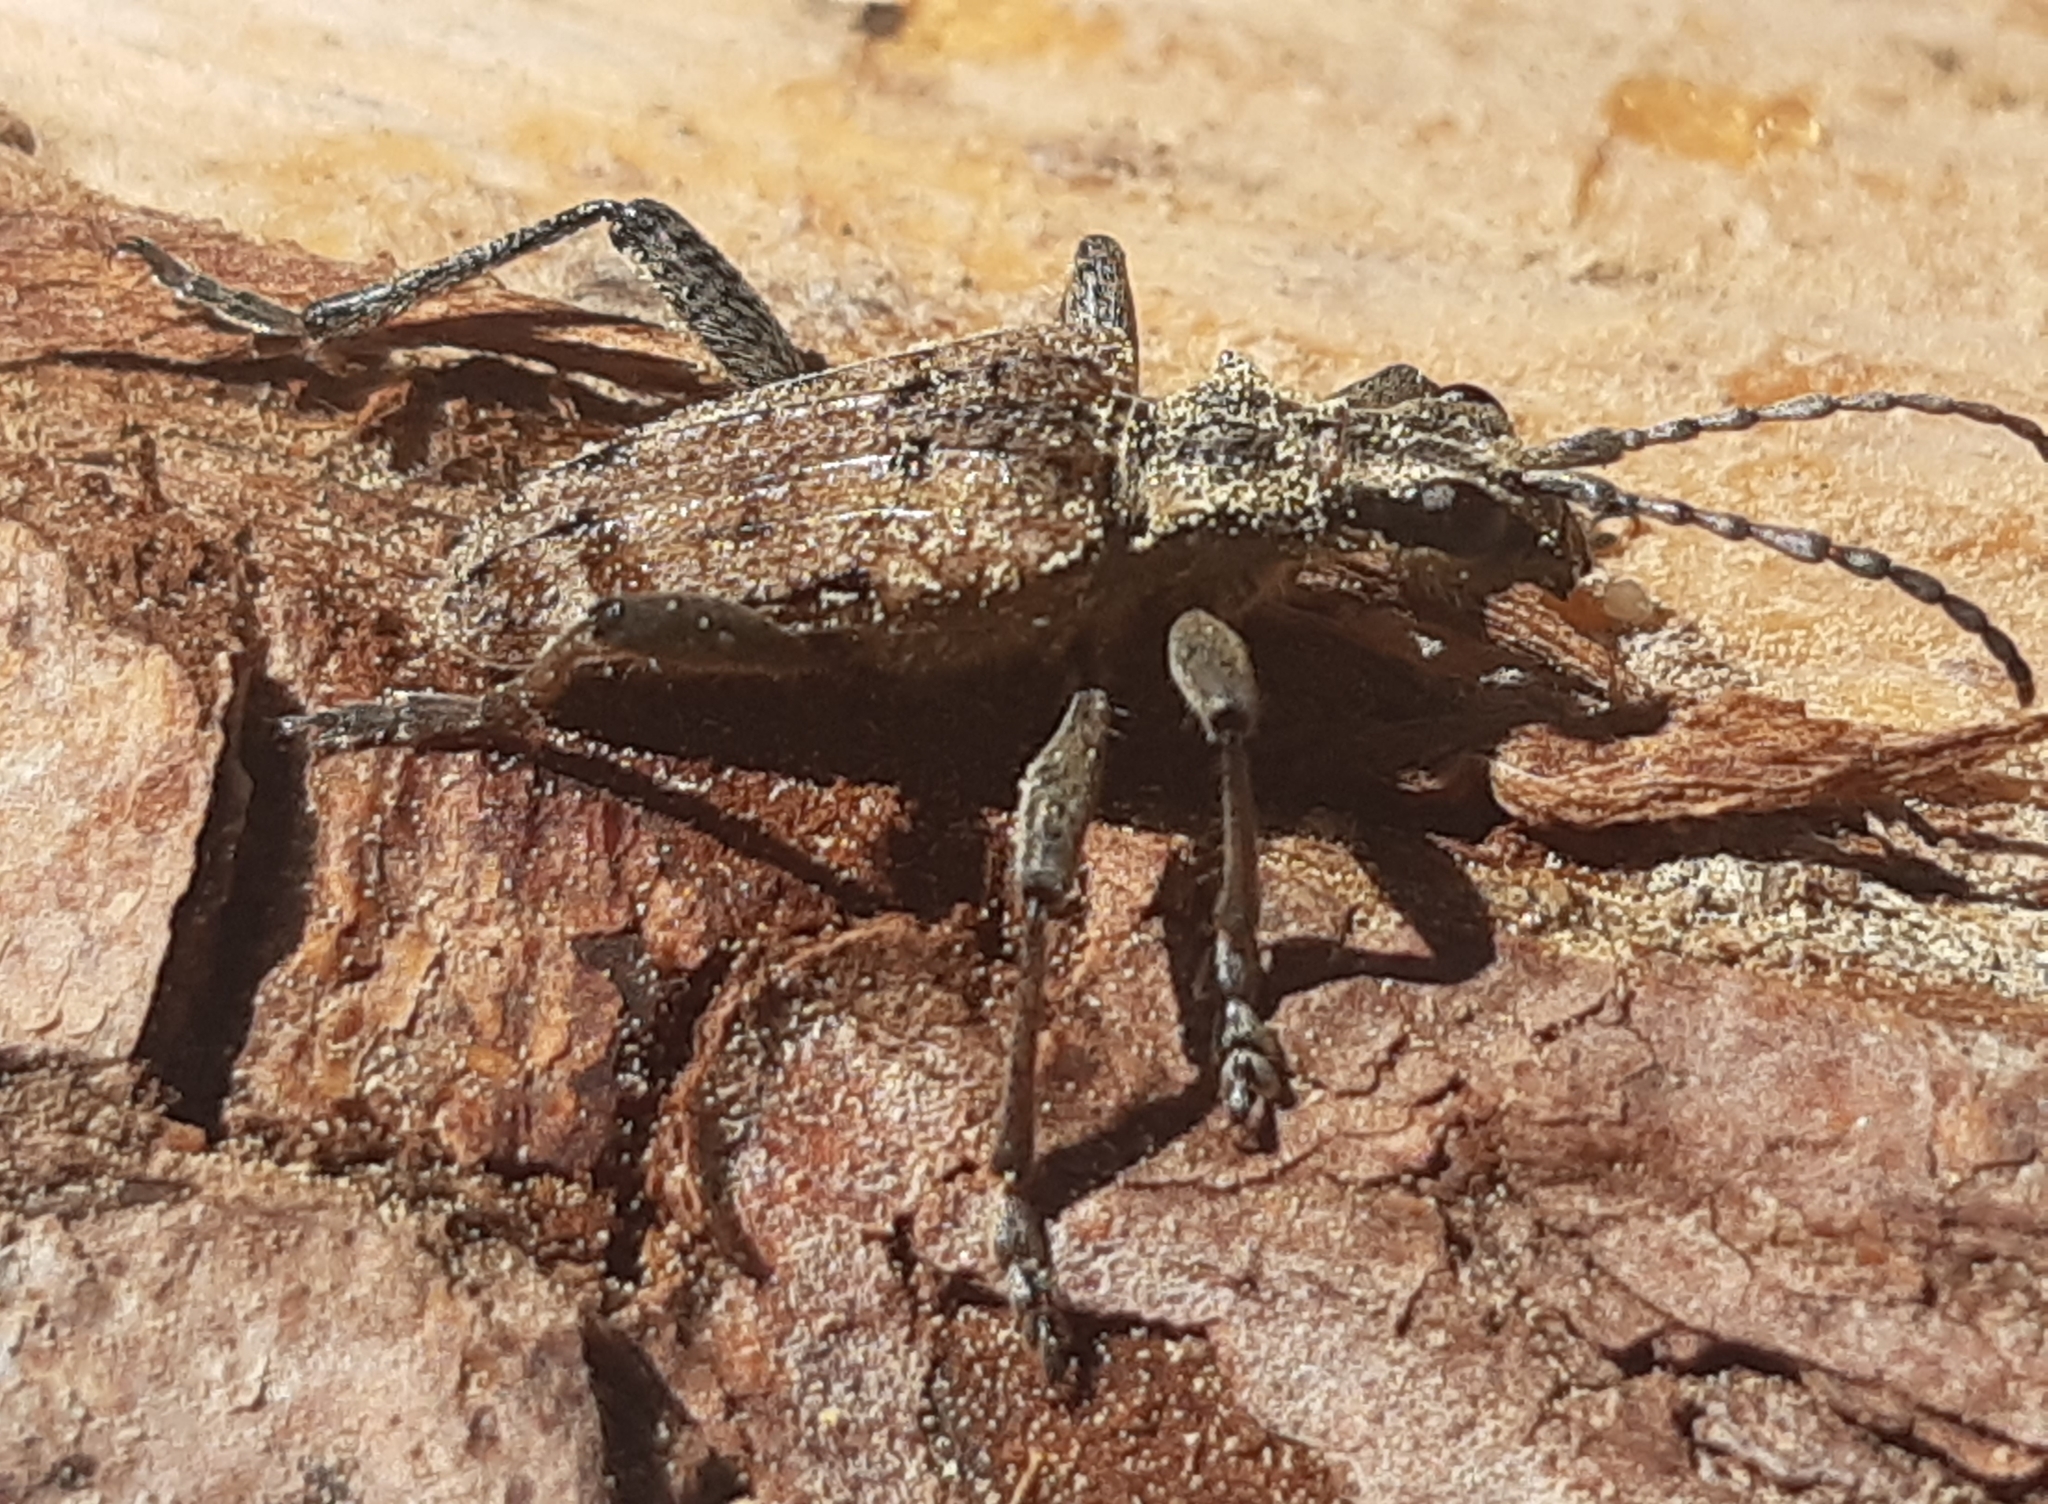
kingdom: Animalia
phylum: Arthropoda
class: Insecta
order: Coleoptera
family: Cerambycidae
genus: Rhagium
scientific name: Rhagium inquisitor
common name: Ribbed pine borer
